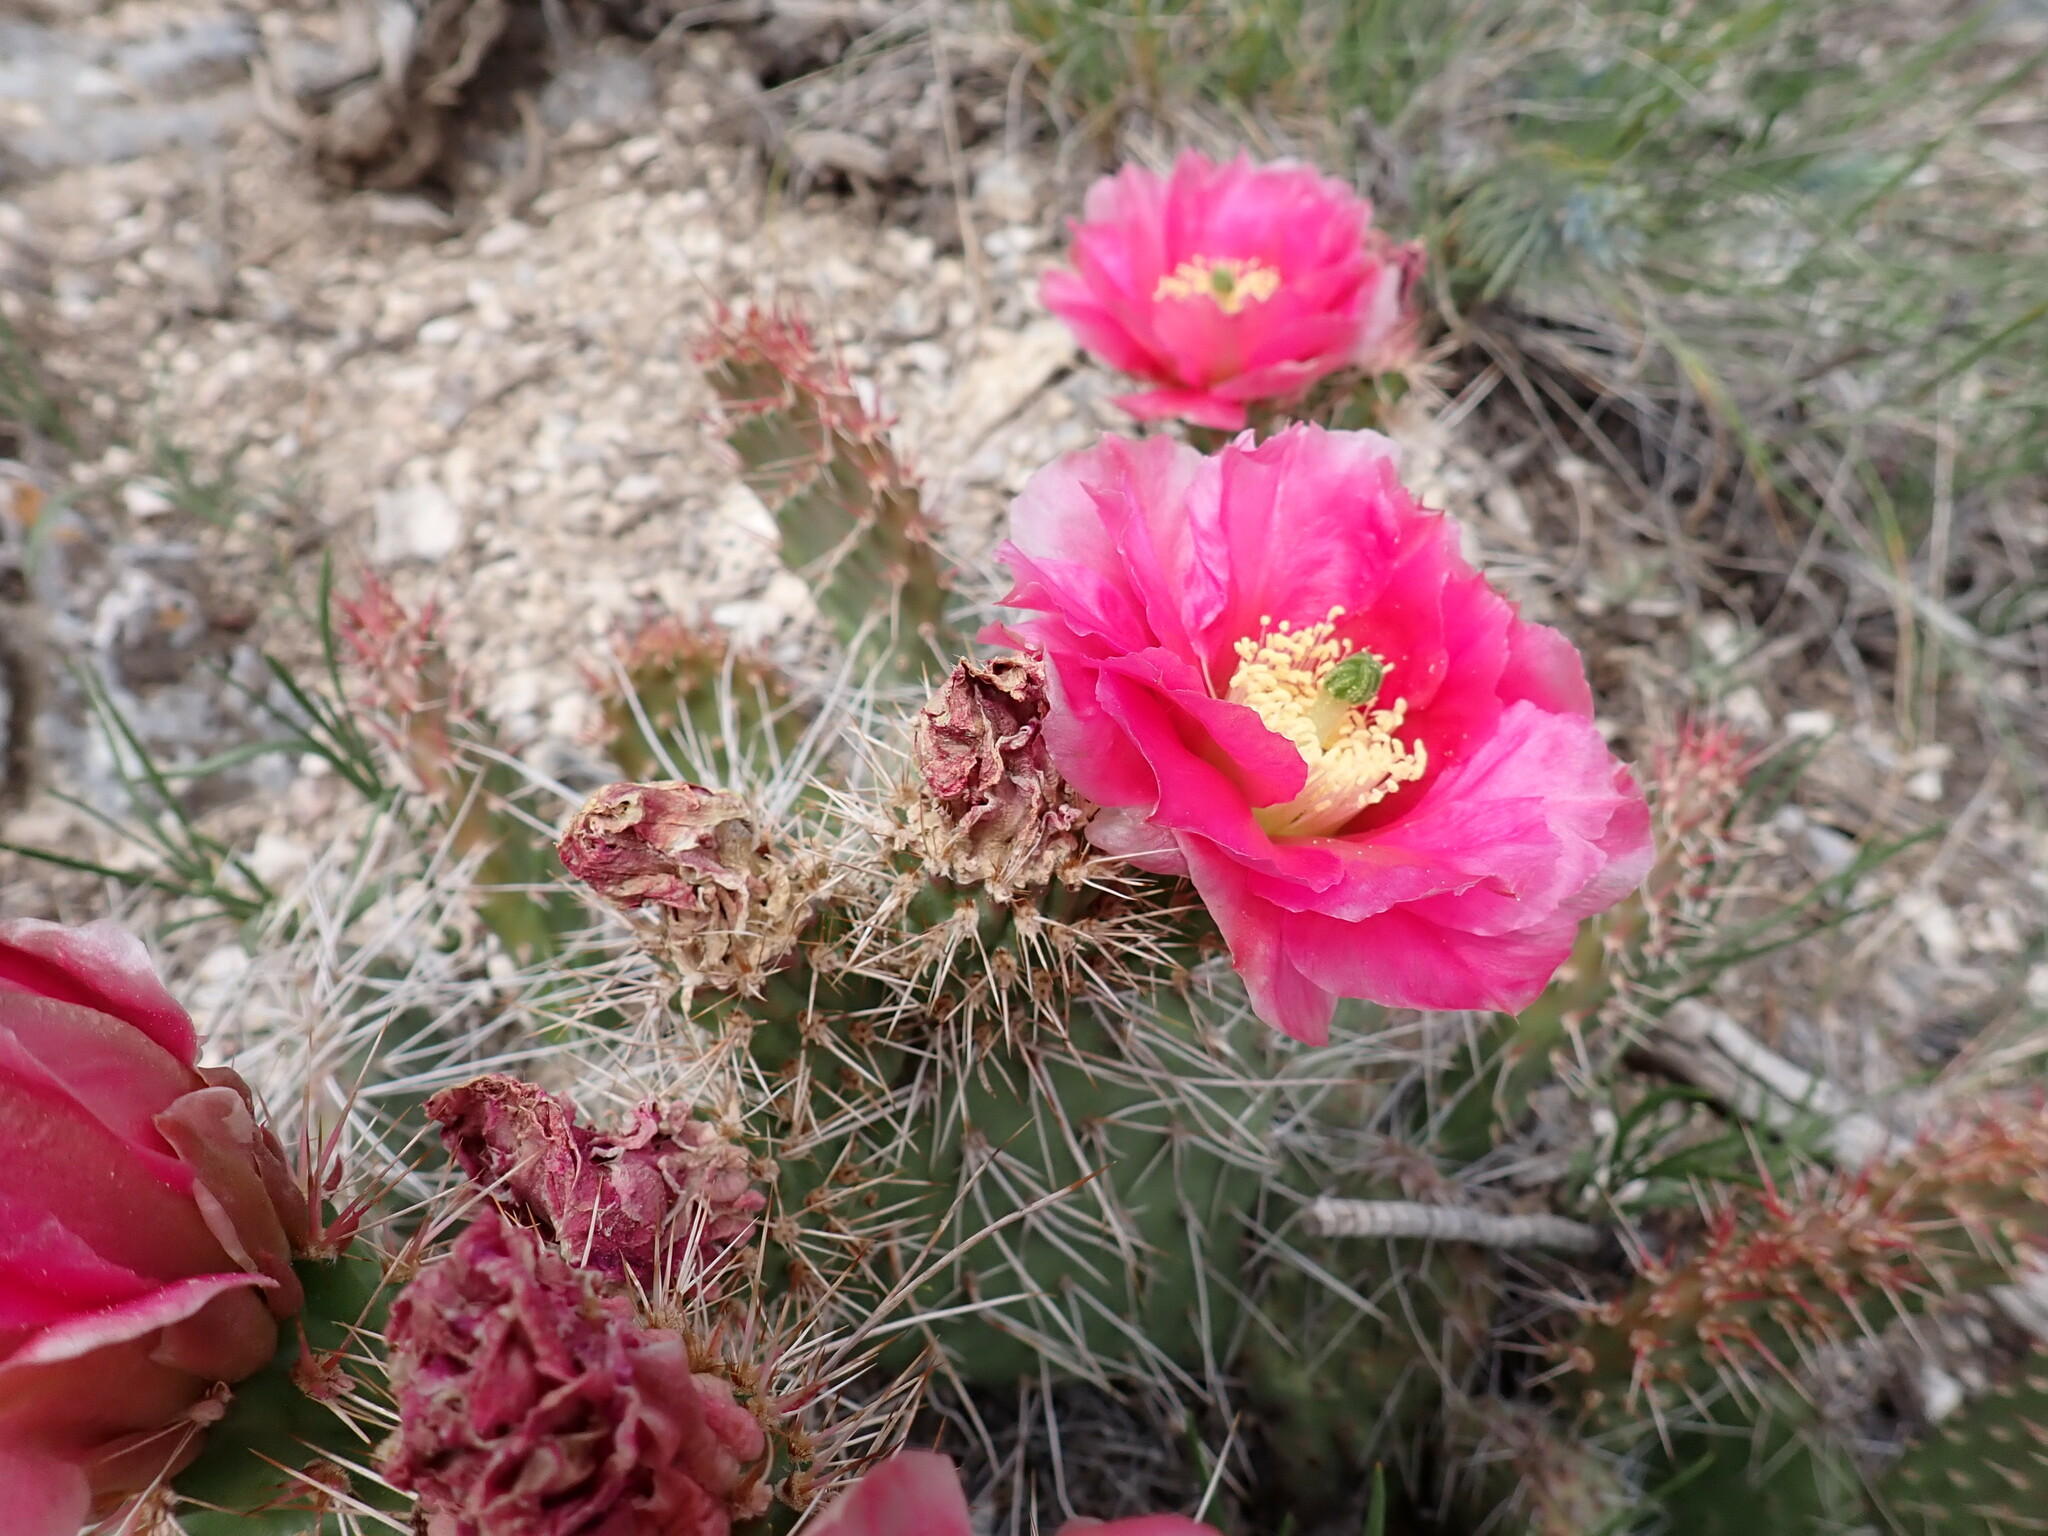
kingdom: Plantae
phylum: Tracheophyta
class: Magnoliopsida
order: Caryophyllales
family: Cactaceae
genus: Opuntia
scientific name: Opuntia polyacantha
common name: Plains prickly-pear
